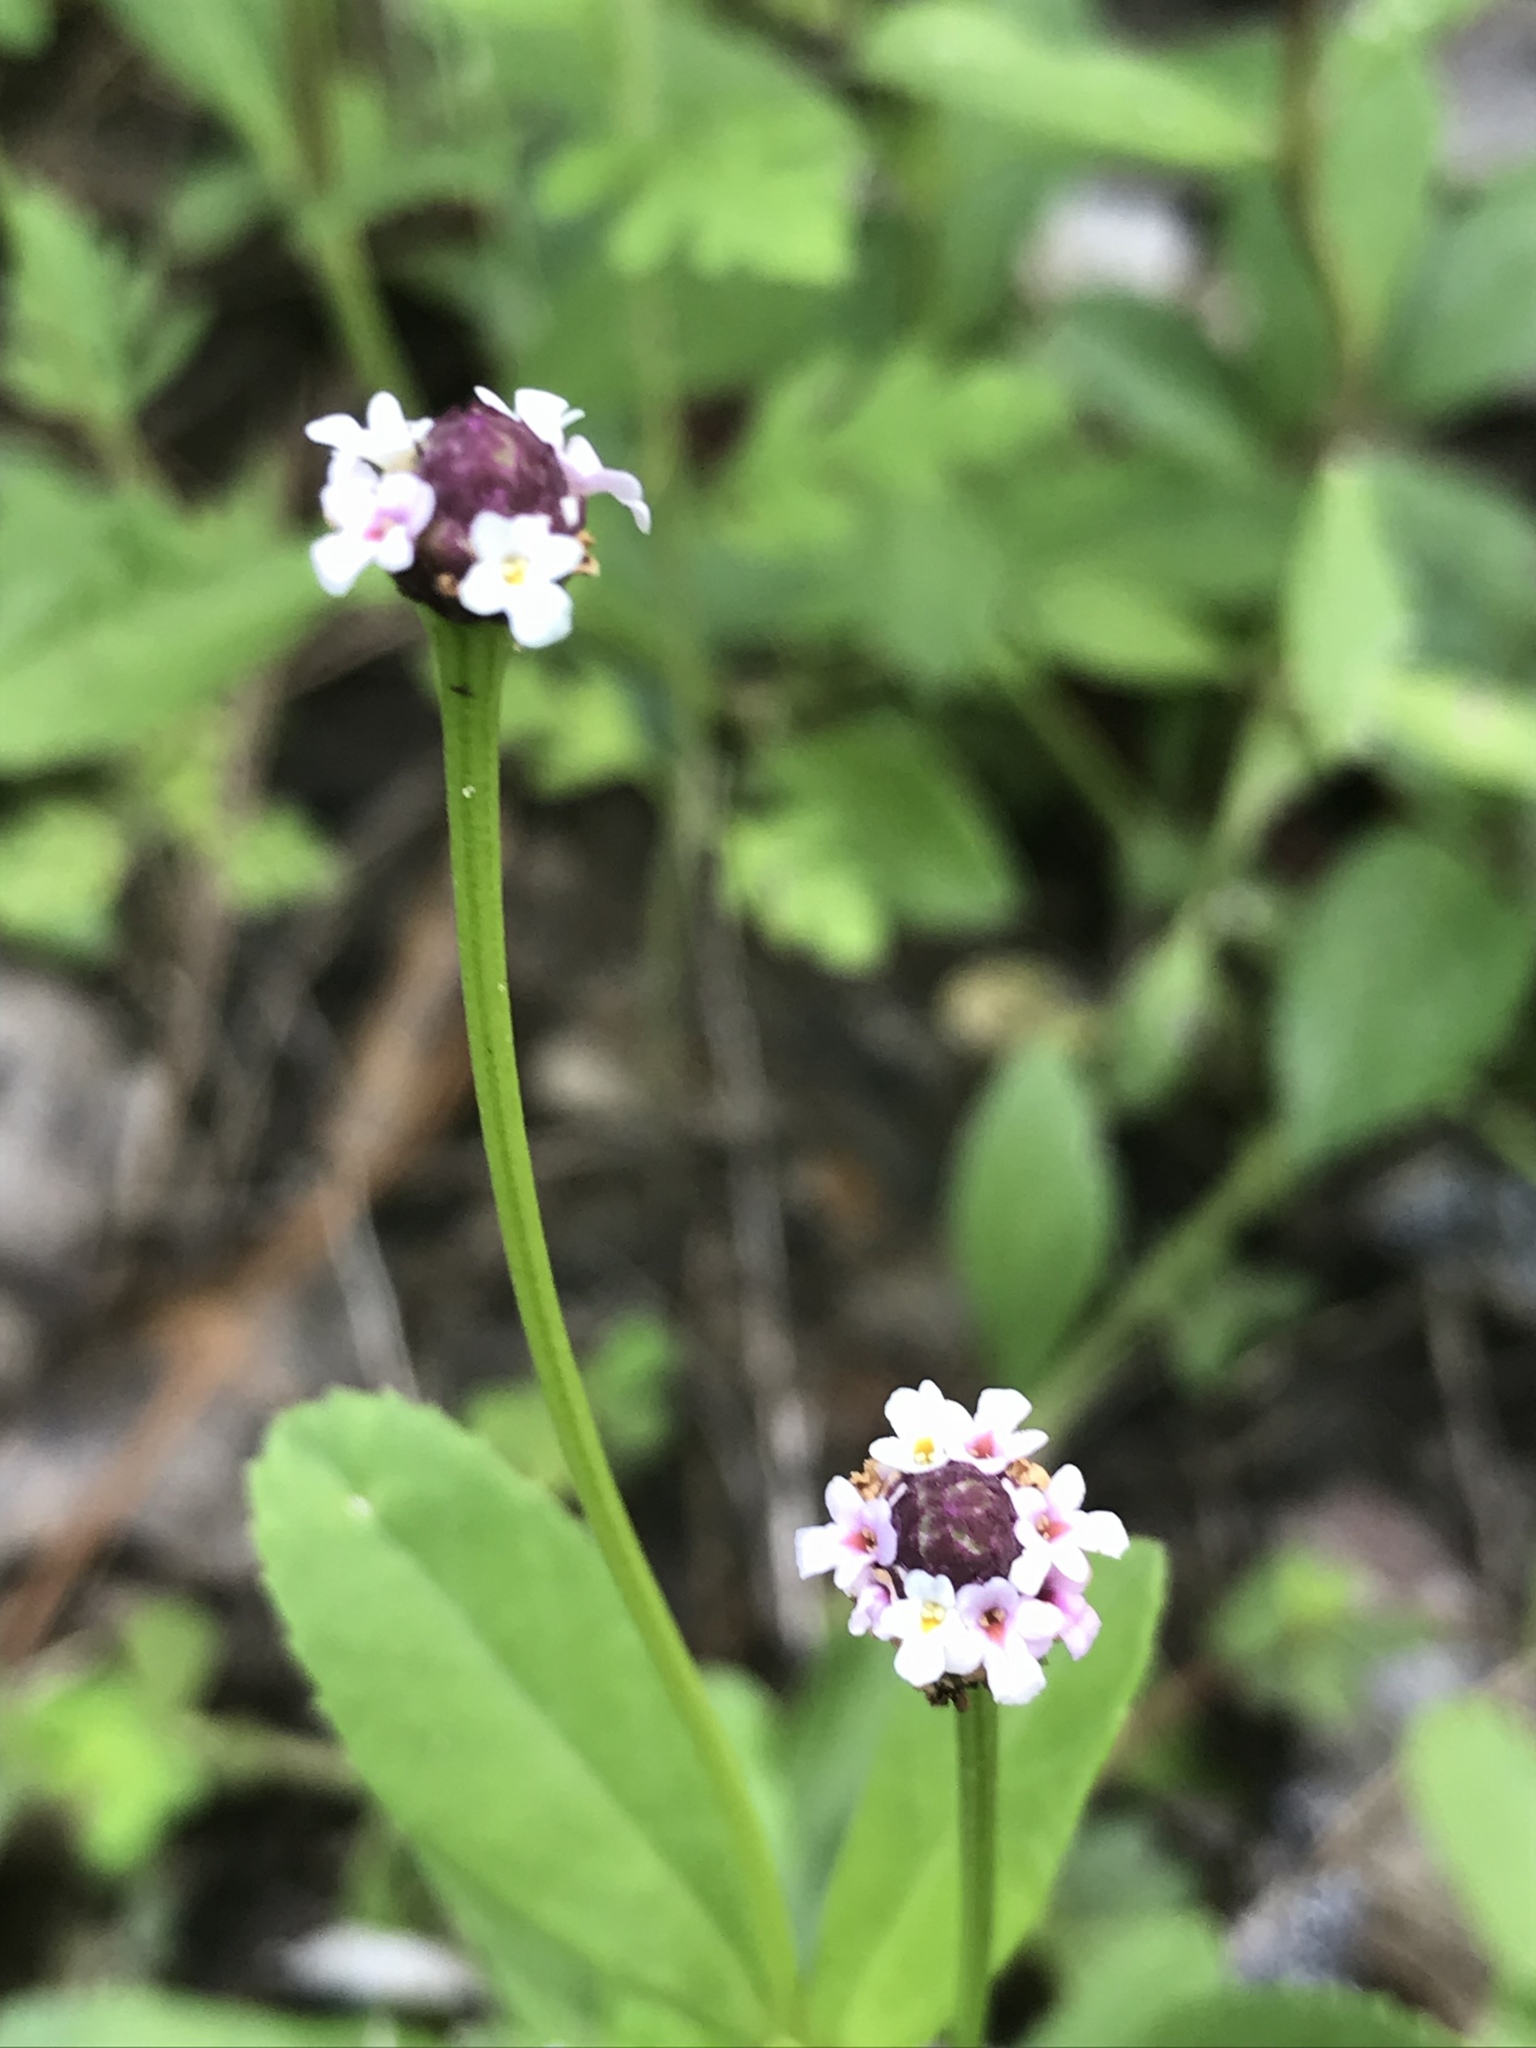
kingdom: Plantae
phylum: Tracheophyta
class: Magnoliopsida
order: Lamiales
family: Verbenaceae
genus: Phyla
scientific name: Phyla nodiflora
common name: Frogfruit
